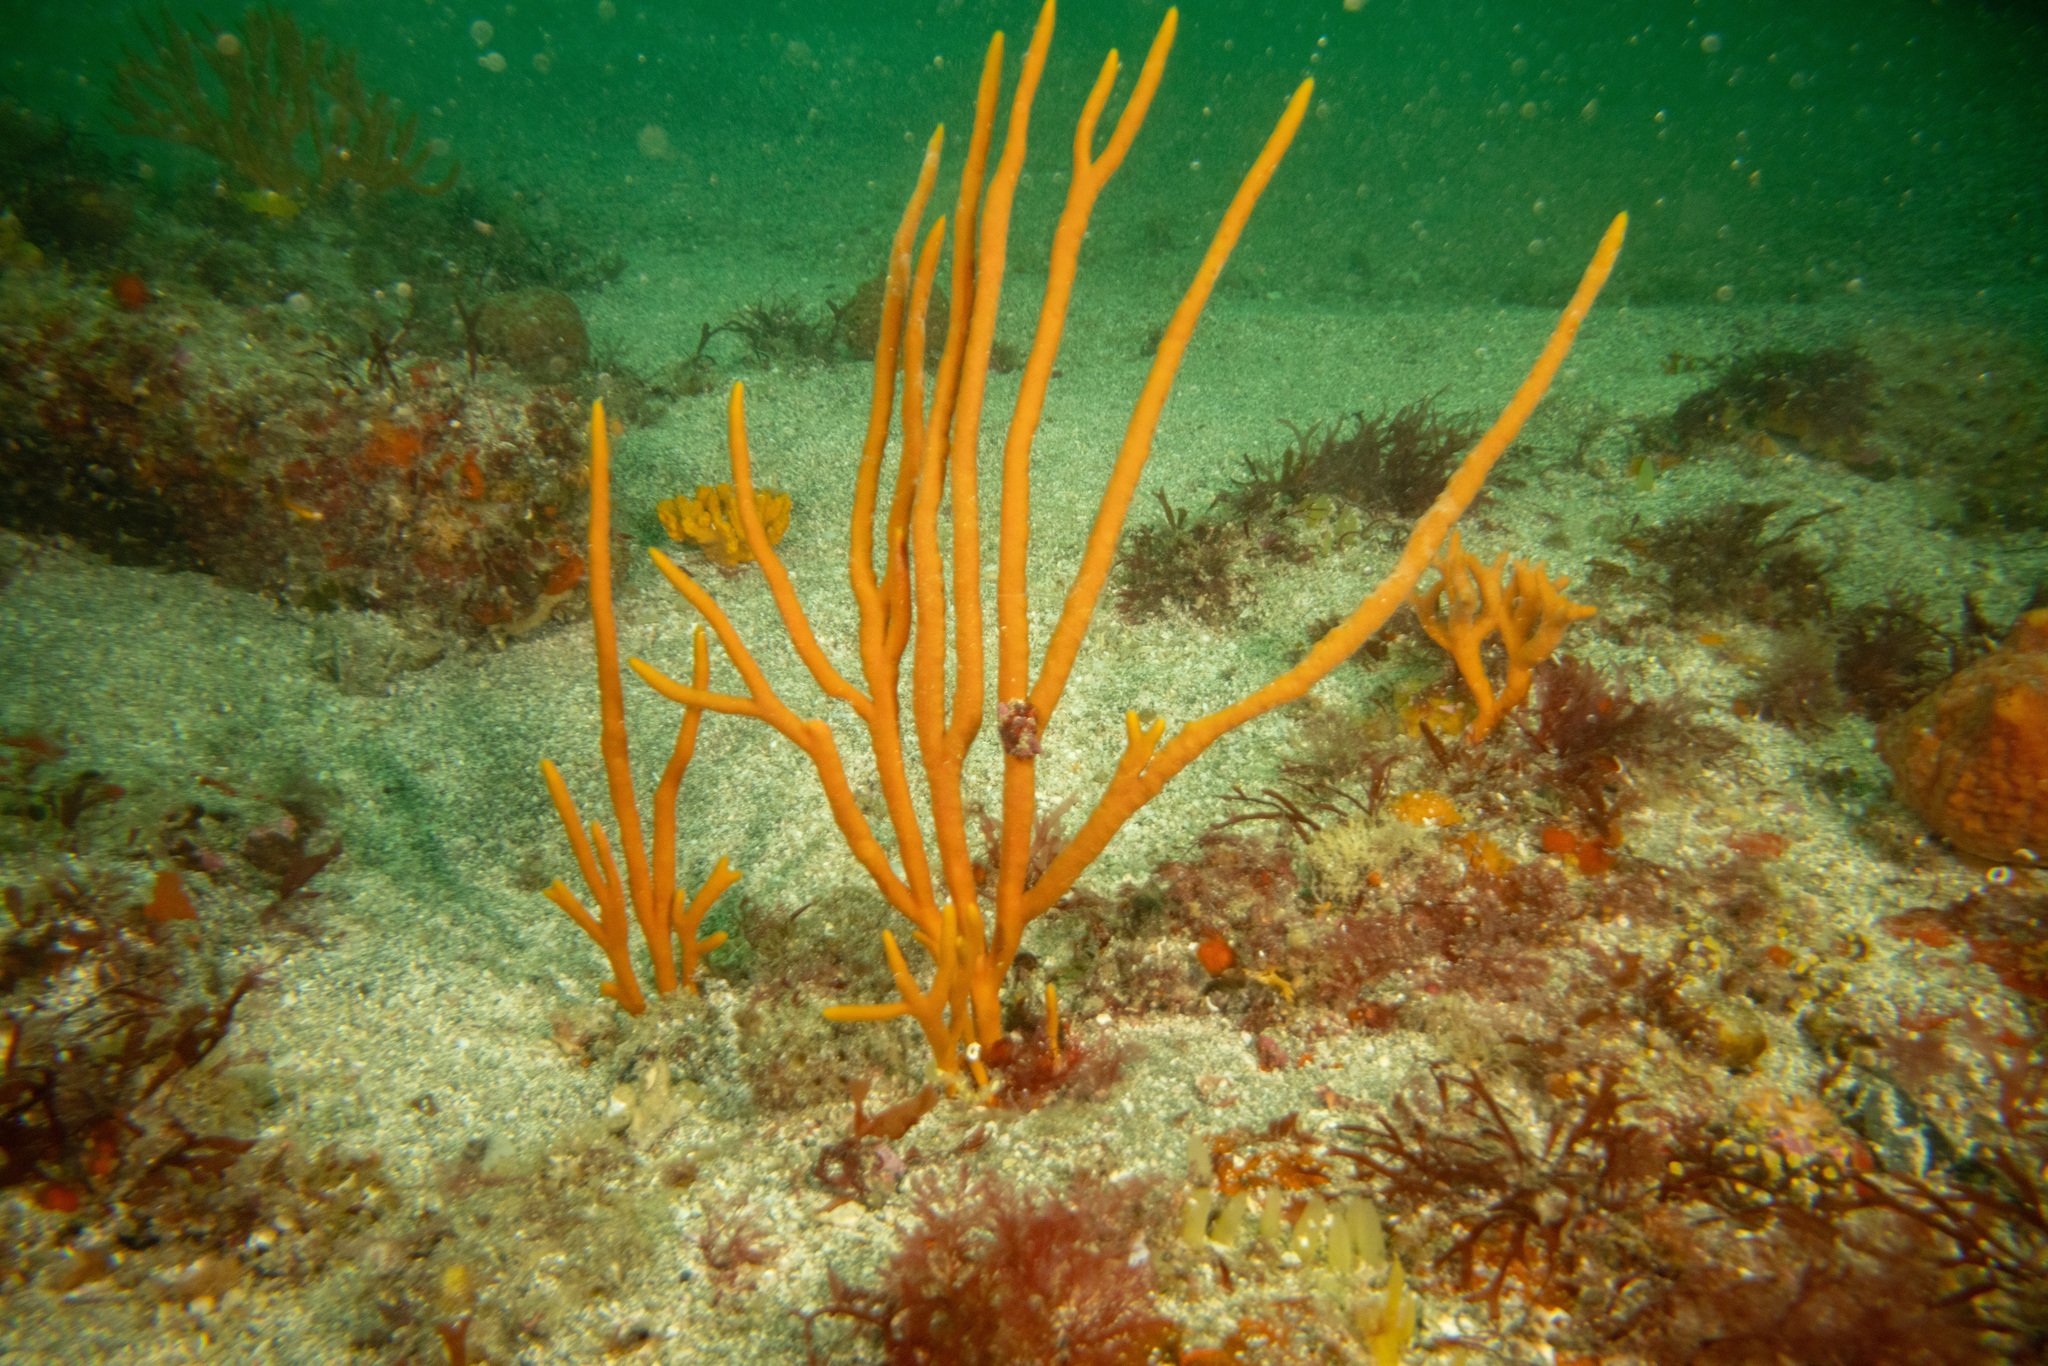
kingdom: Animalia
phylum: Porifera
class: Demospongiae
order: Axinellida
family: Axinellidae
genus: Axinella
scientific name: Axinella australiensis
